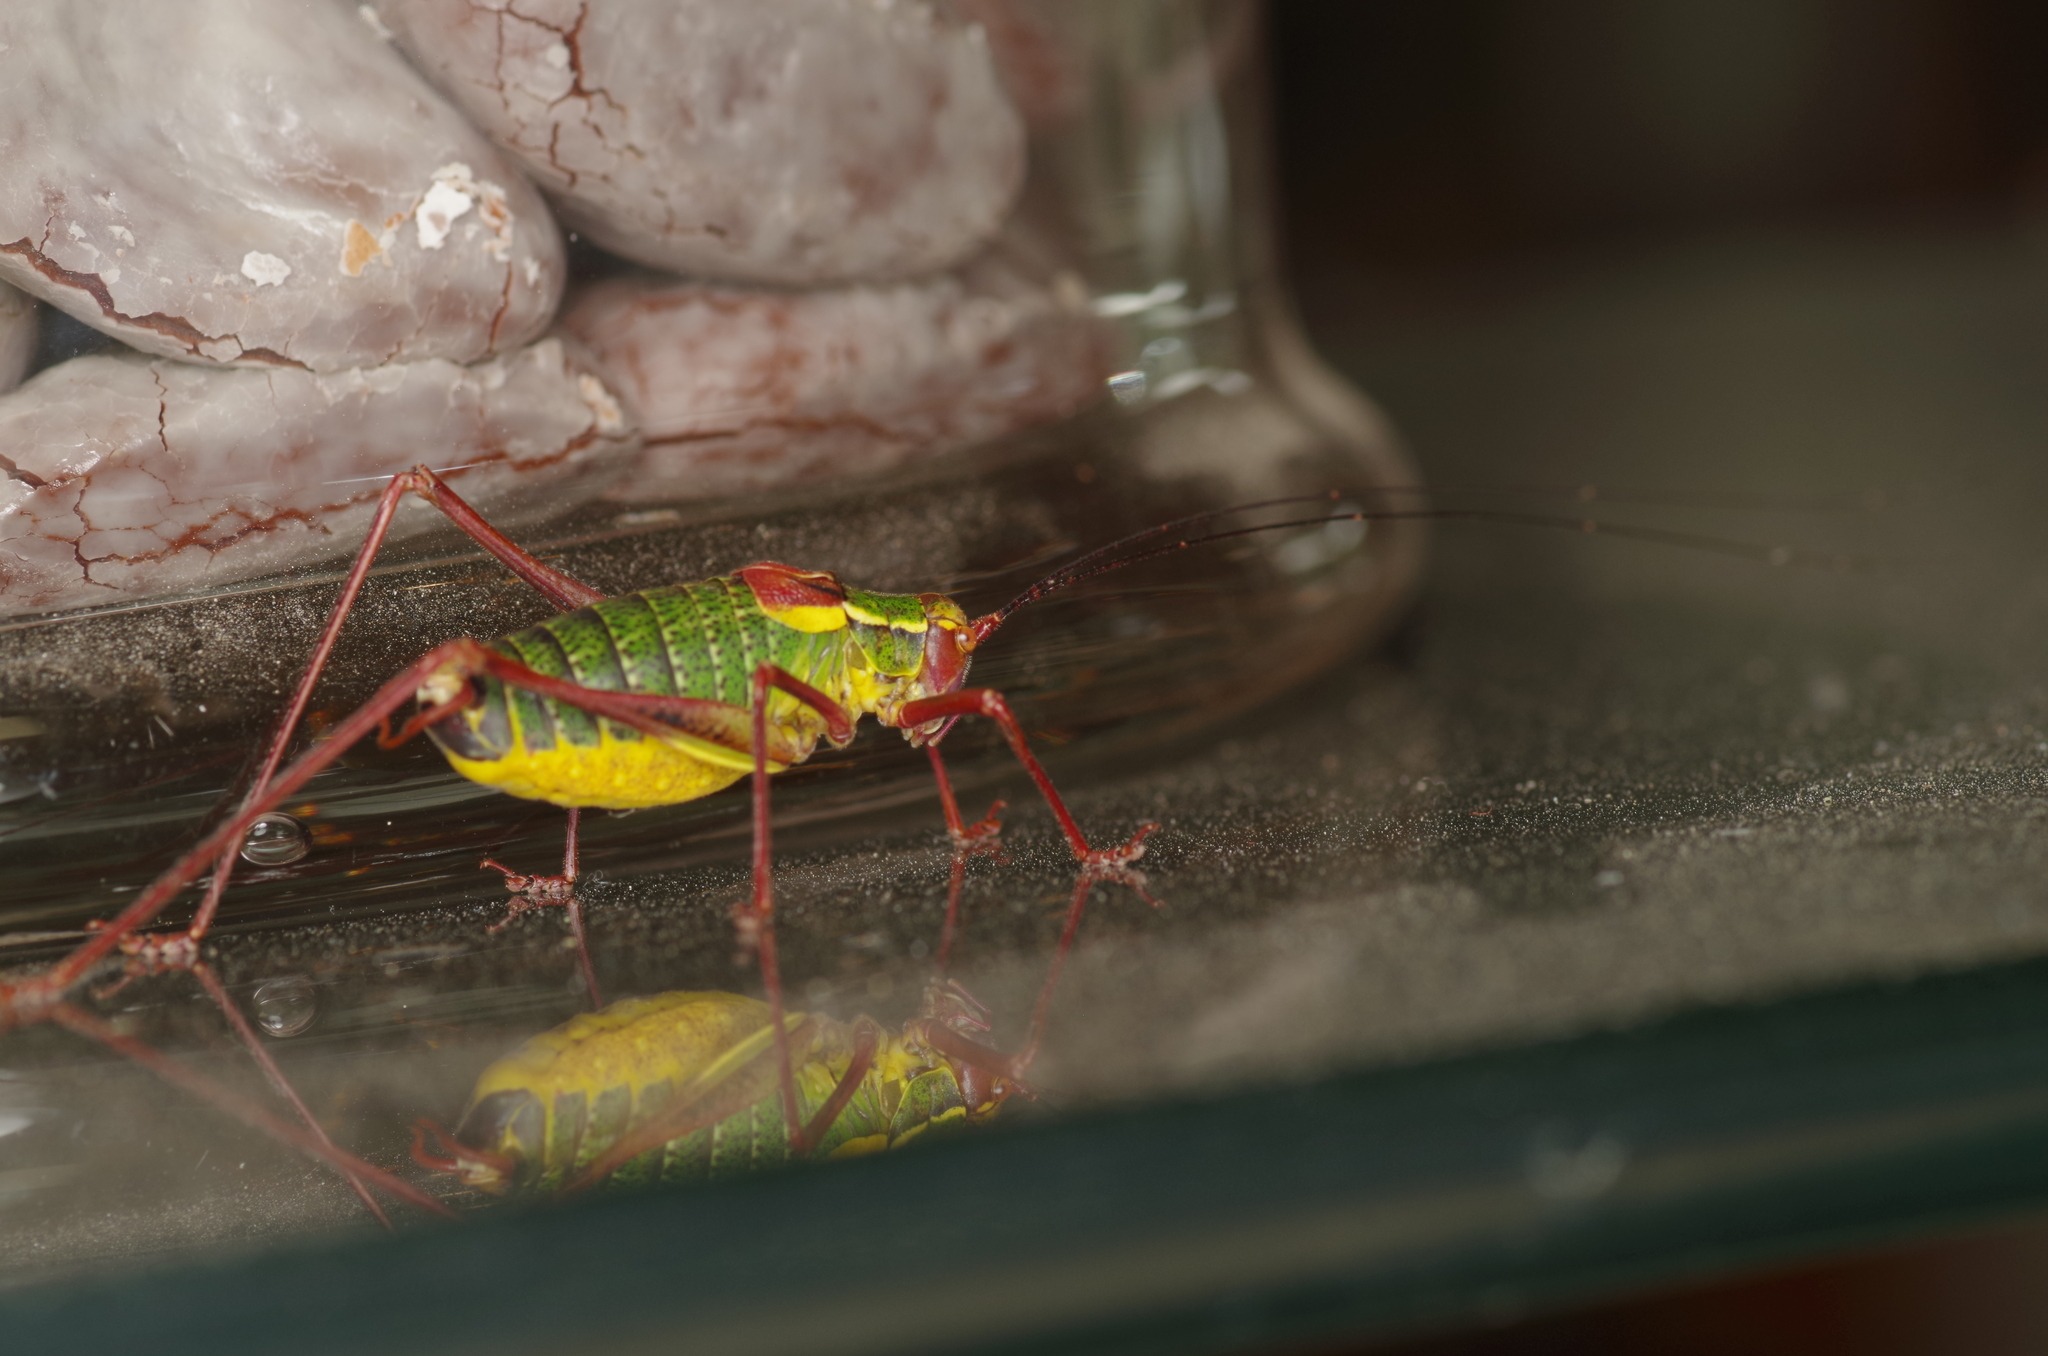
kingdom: Animalia
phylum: Arthropoda
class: Insecta
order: Orthoptera
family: Tettigoniidae
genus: Barbitistes
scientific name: Barbitistes serricauda
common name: Saw-tailed bush-cricket
